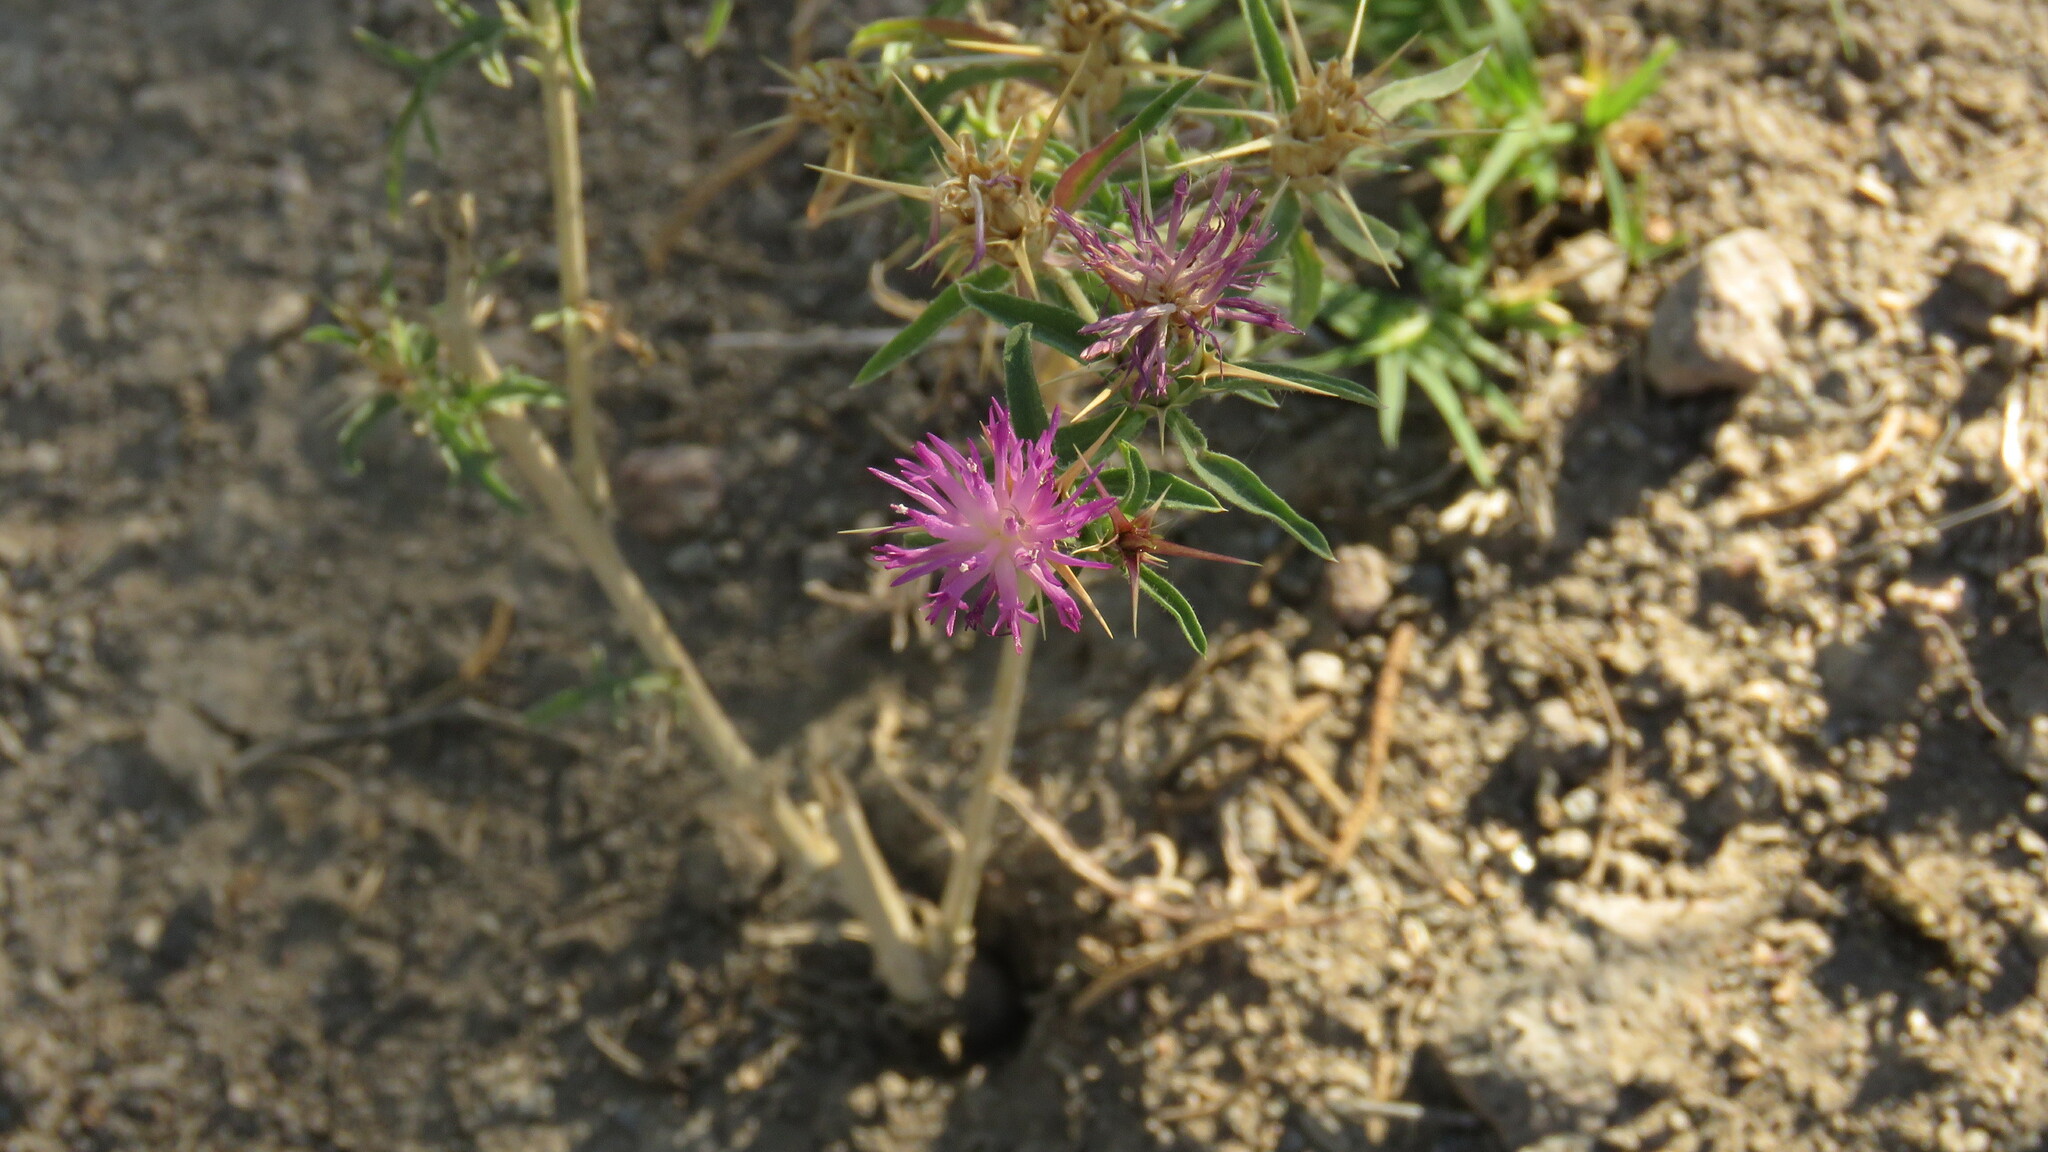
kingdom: Plantae
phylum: Tracheophyta
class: Magnoliopsida
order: Asterales
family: Asteraceae
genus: Centaurea
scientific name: Centaurea calcitrapa
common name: Red star-thistle
